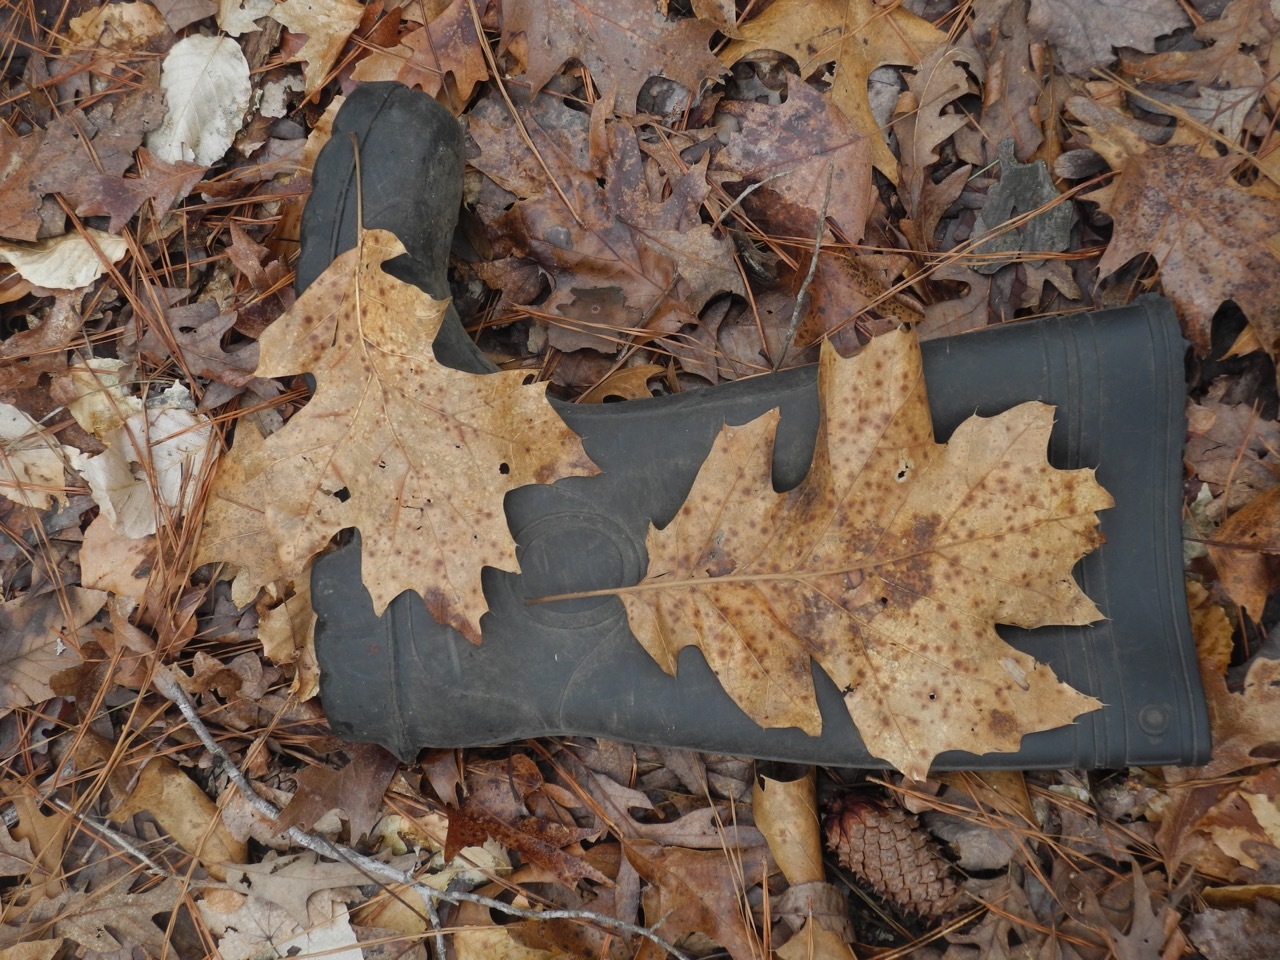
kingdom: Plantae
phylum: Tracheophyta
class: Magnoliopsida
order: Fagales
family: Fagaceae
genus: Quercus
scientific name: Quercus velutina
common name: Black oak
